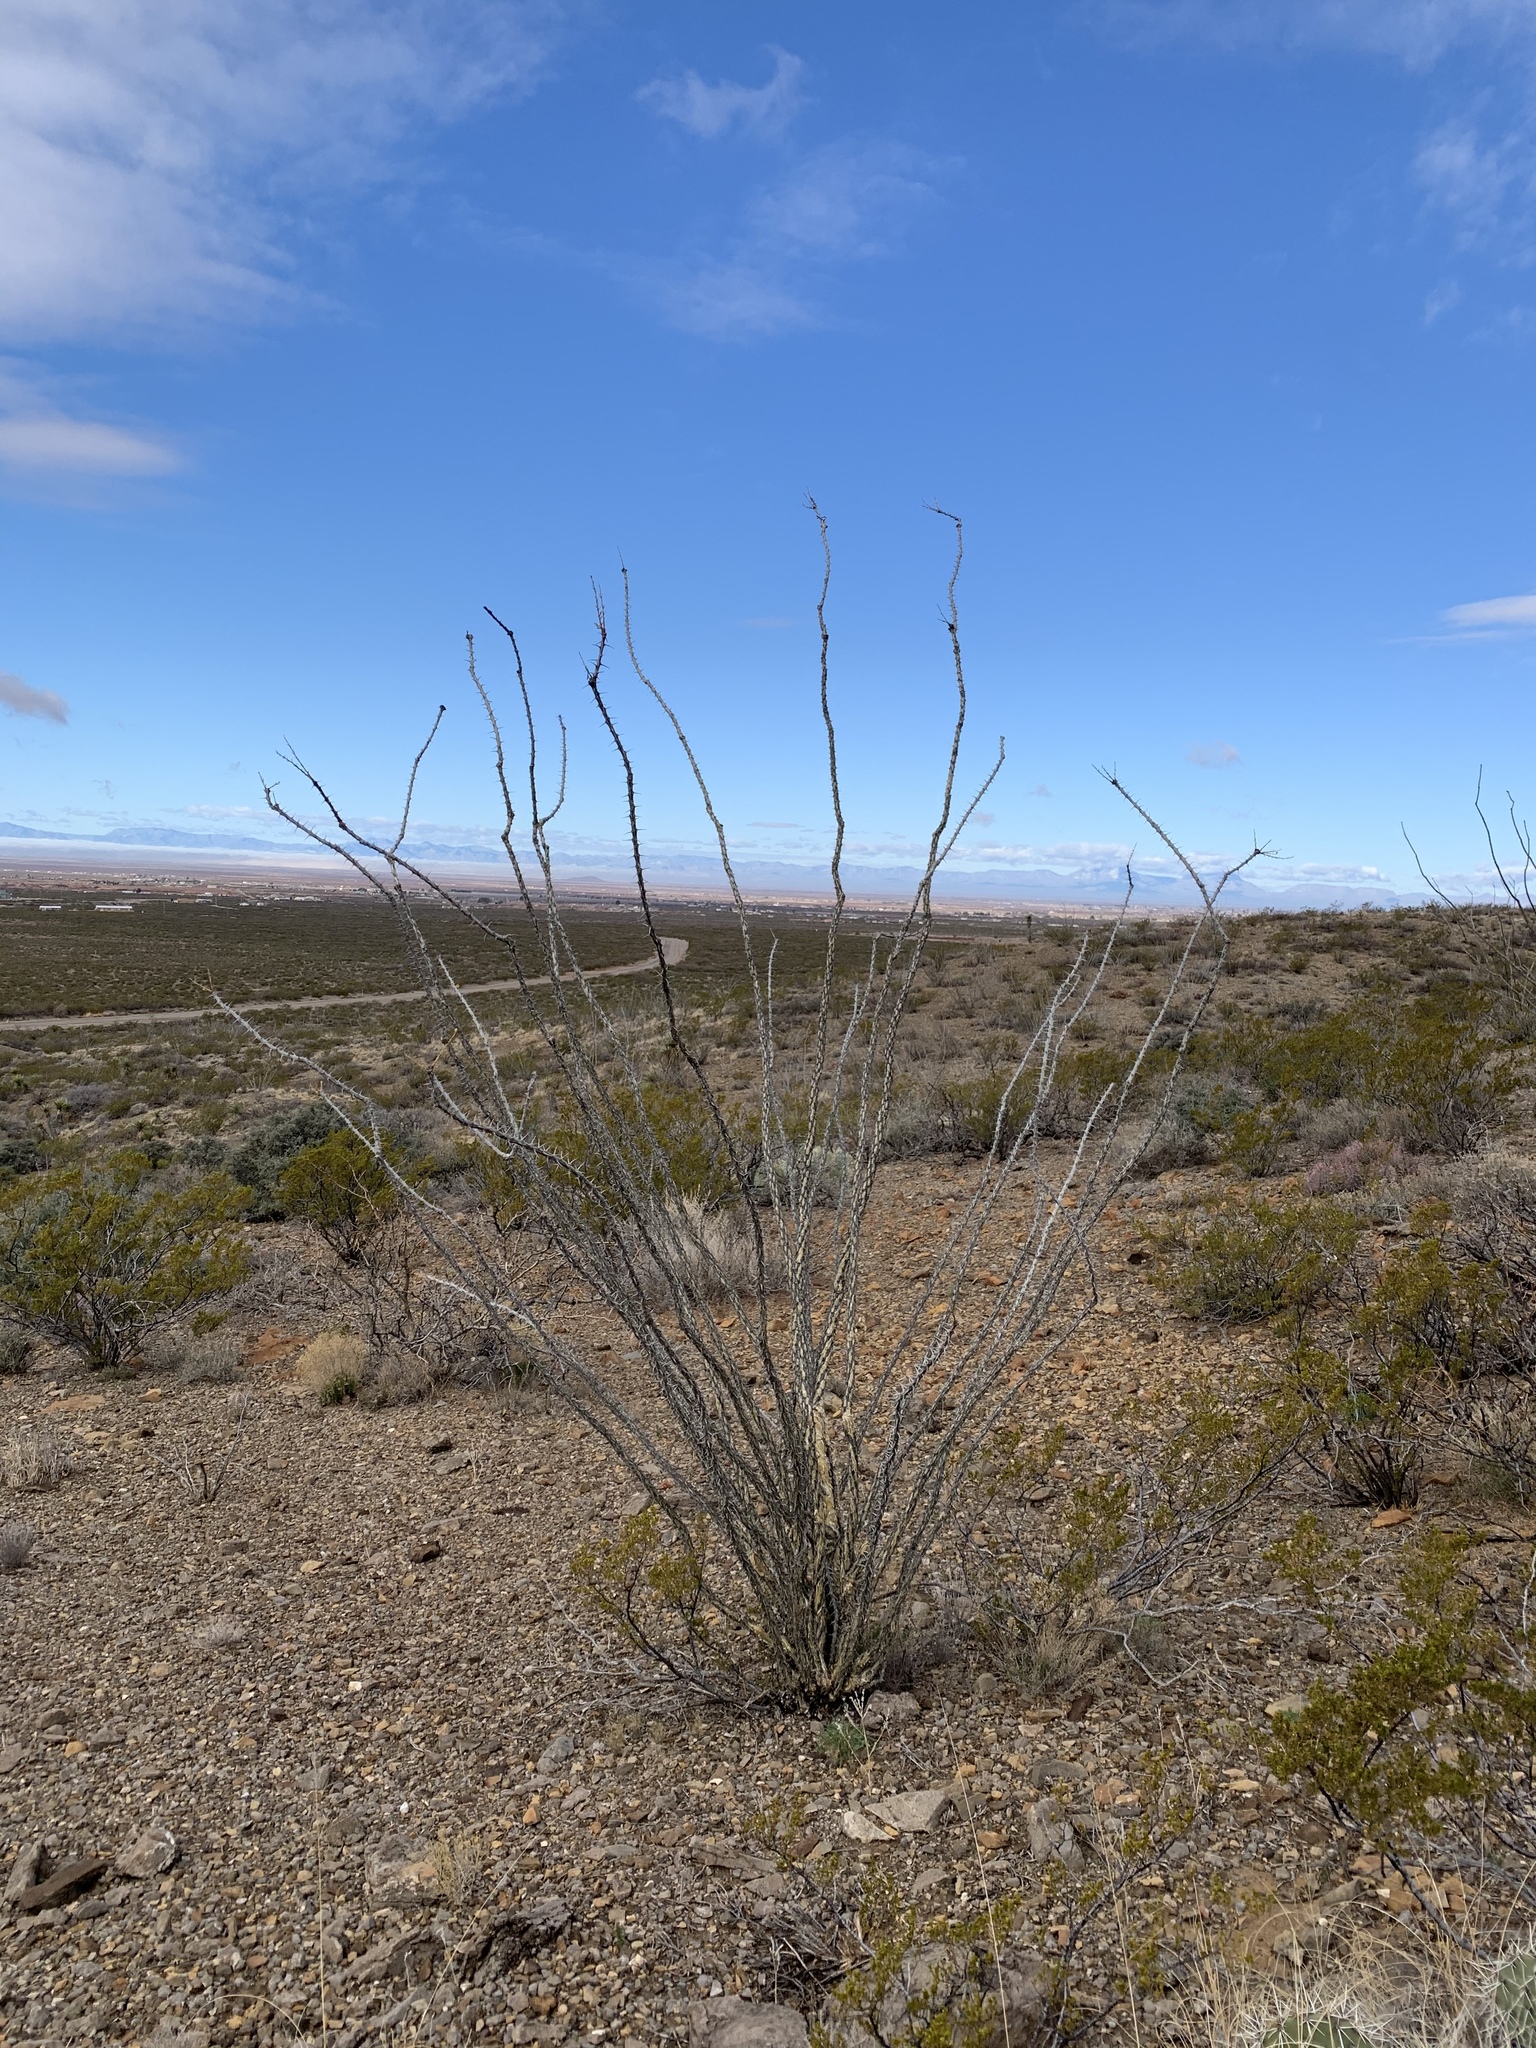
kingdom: Plantae
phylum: Tracheophyta
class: Magnoliopsida
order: Ericales
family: Fouquieriaceae
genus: Fouquieria
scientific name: Fouquieria splendens
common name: Vine-cactus
